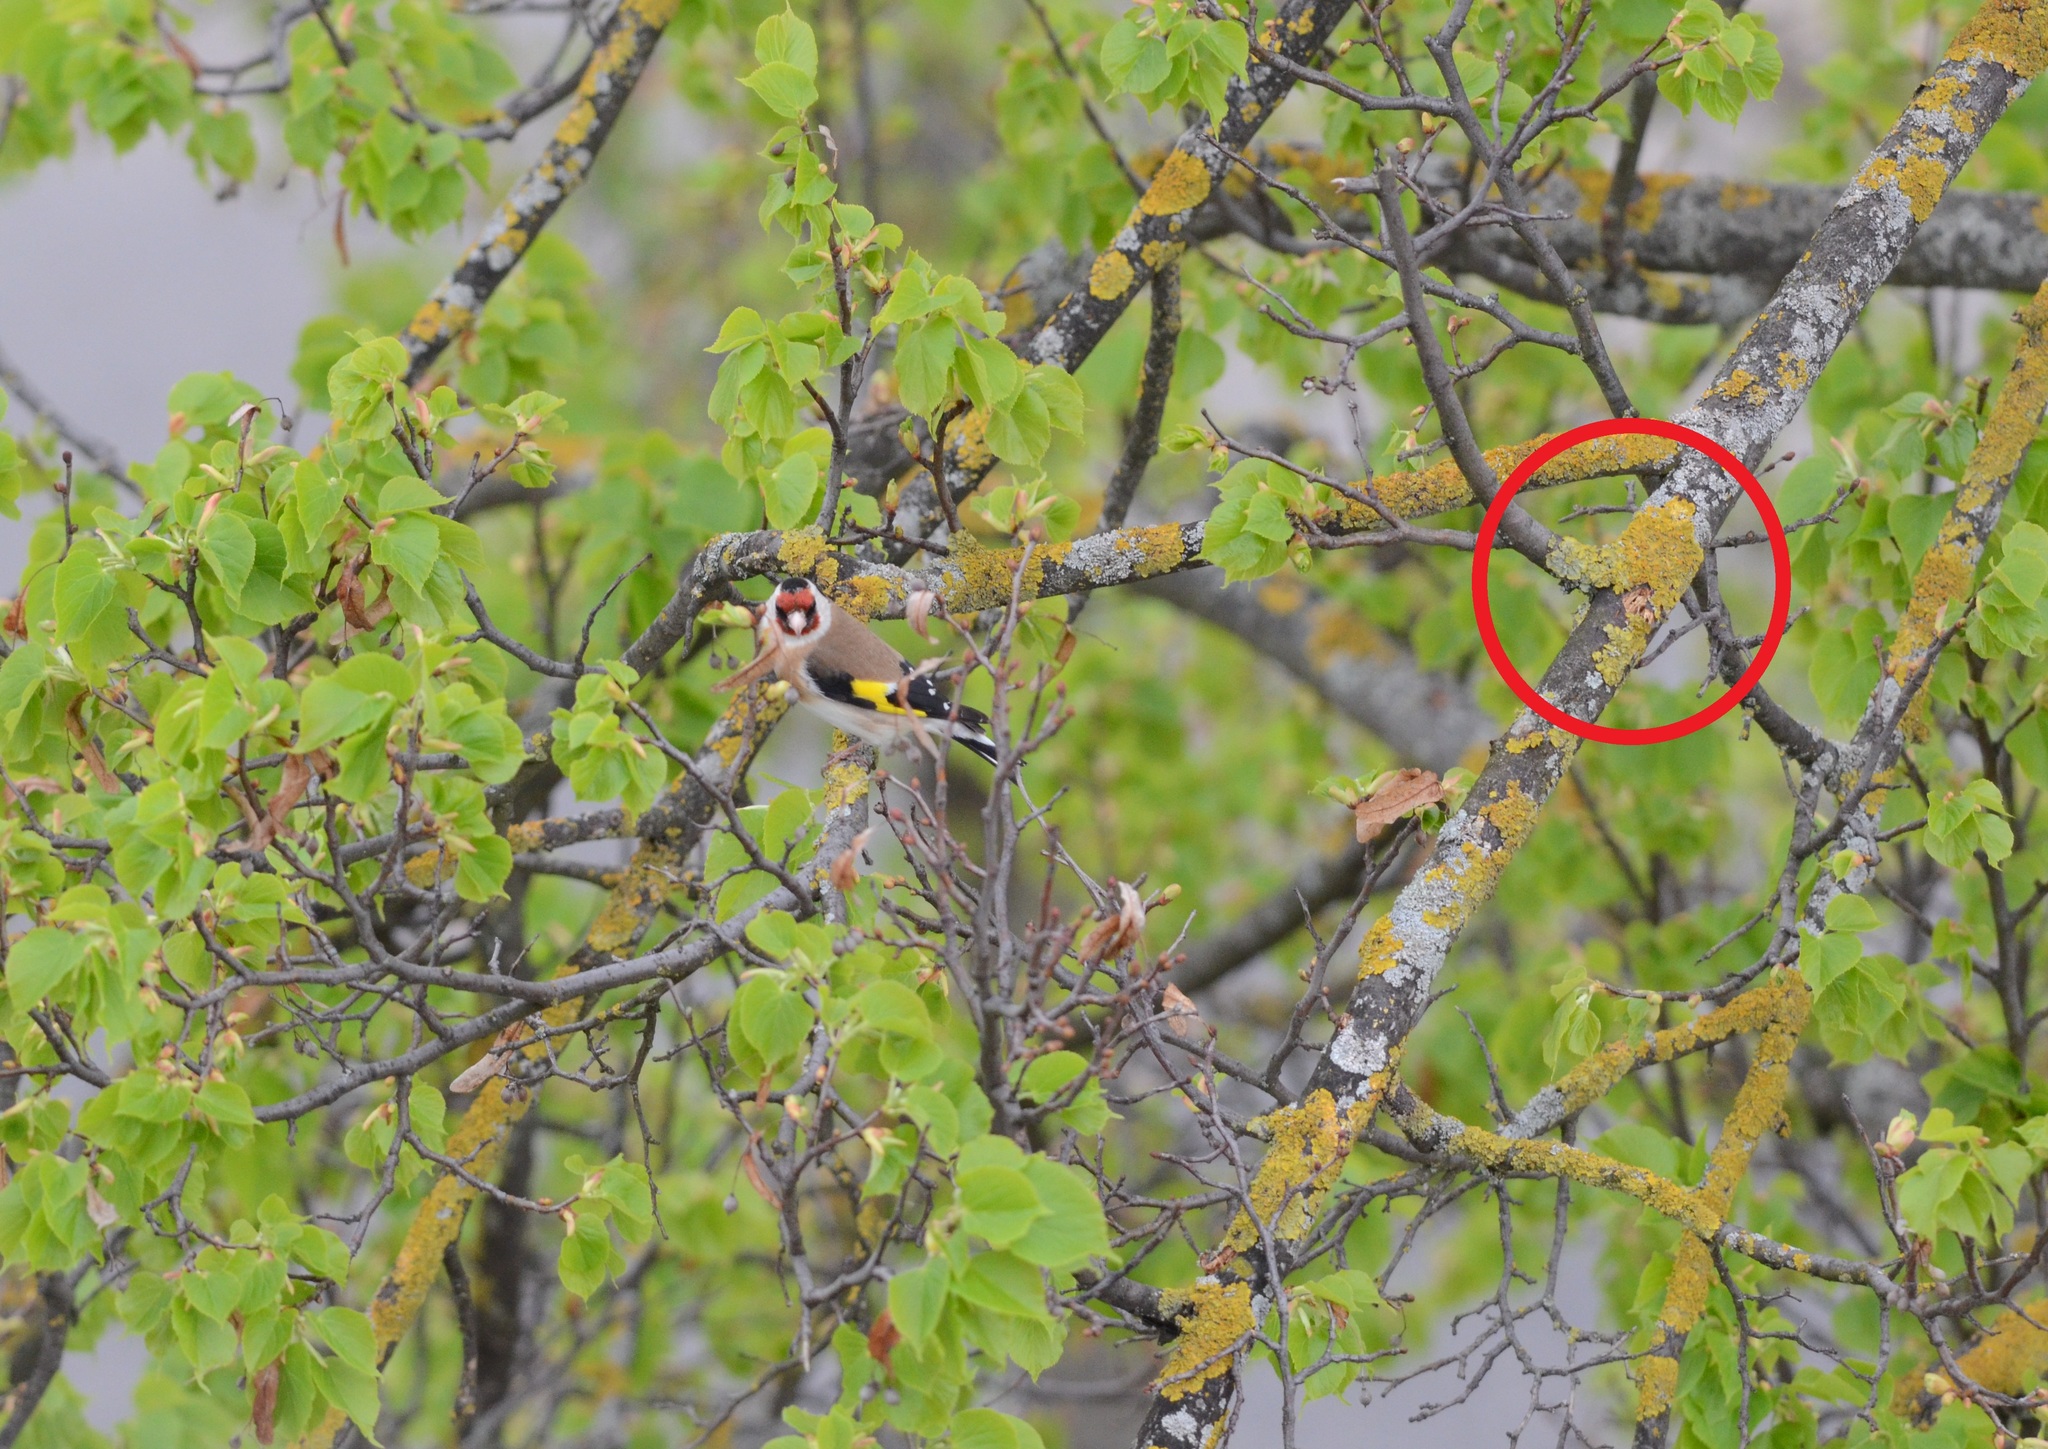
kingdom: Fungi
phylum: Ascomycota
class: Lecanoromycetes
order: Teloschistales
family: Teloschistaceae
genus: Xanthoria
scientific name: Xanthoria parietina
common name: Common orange lichen
